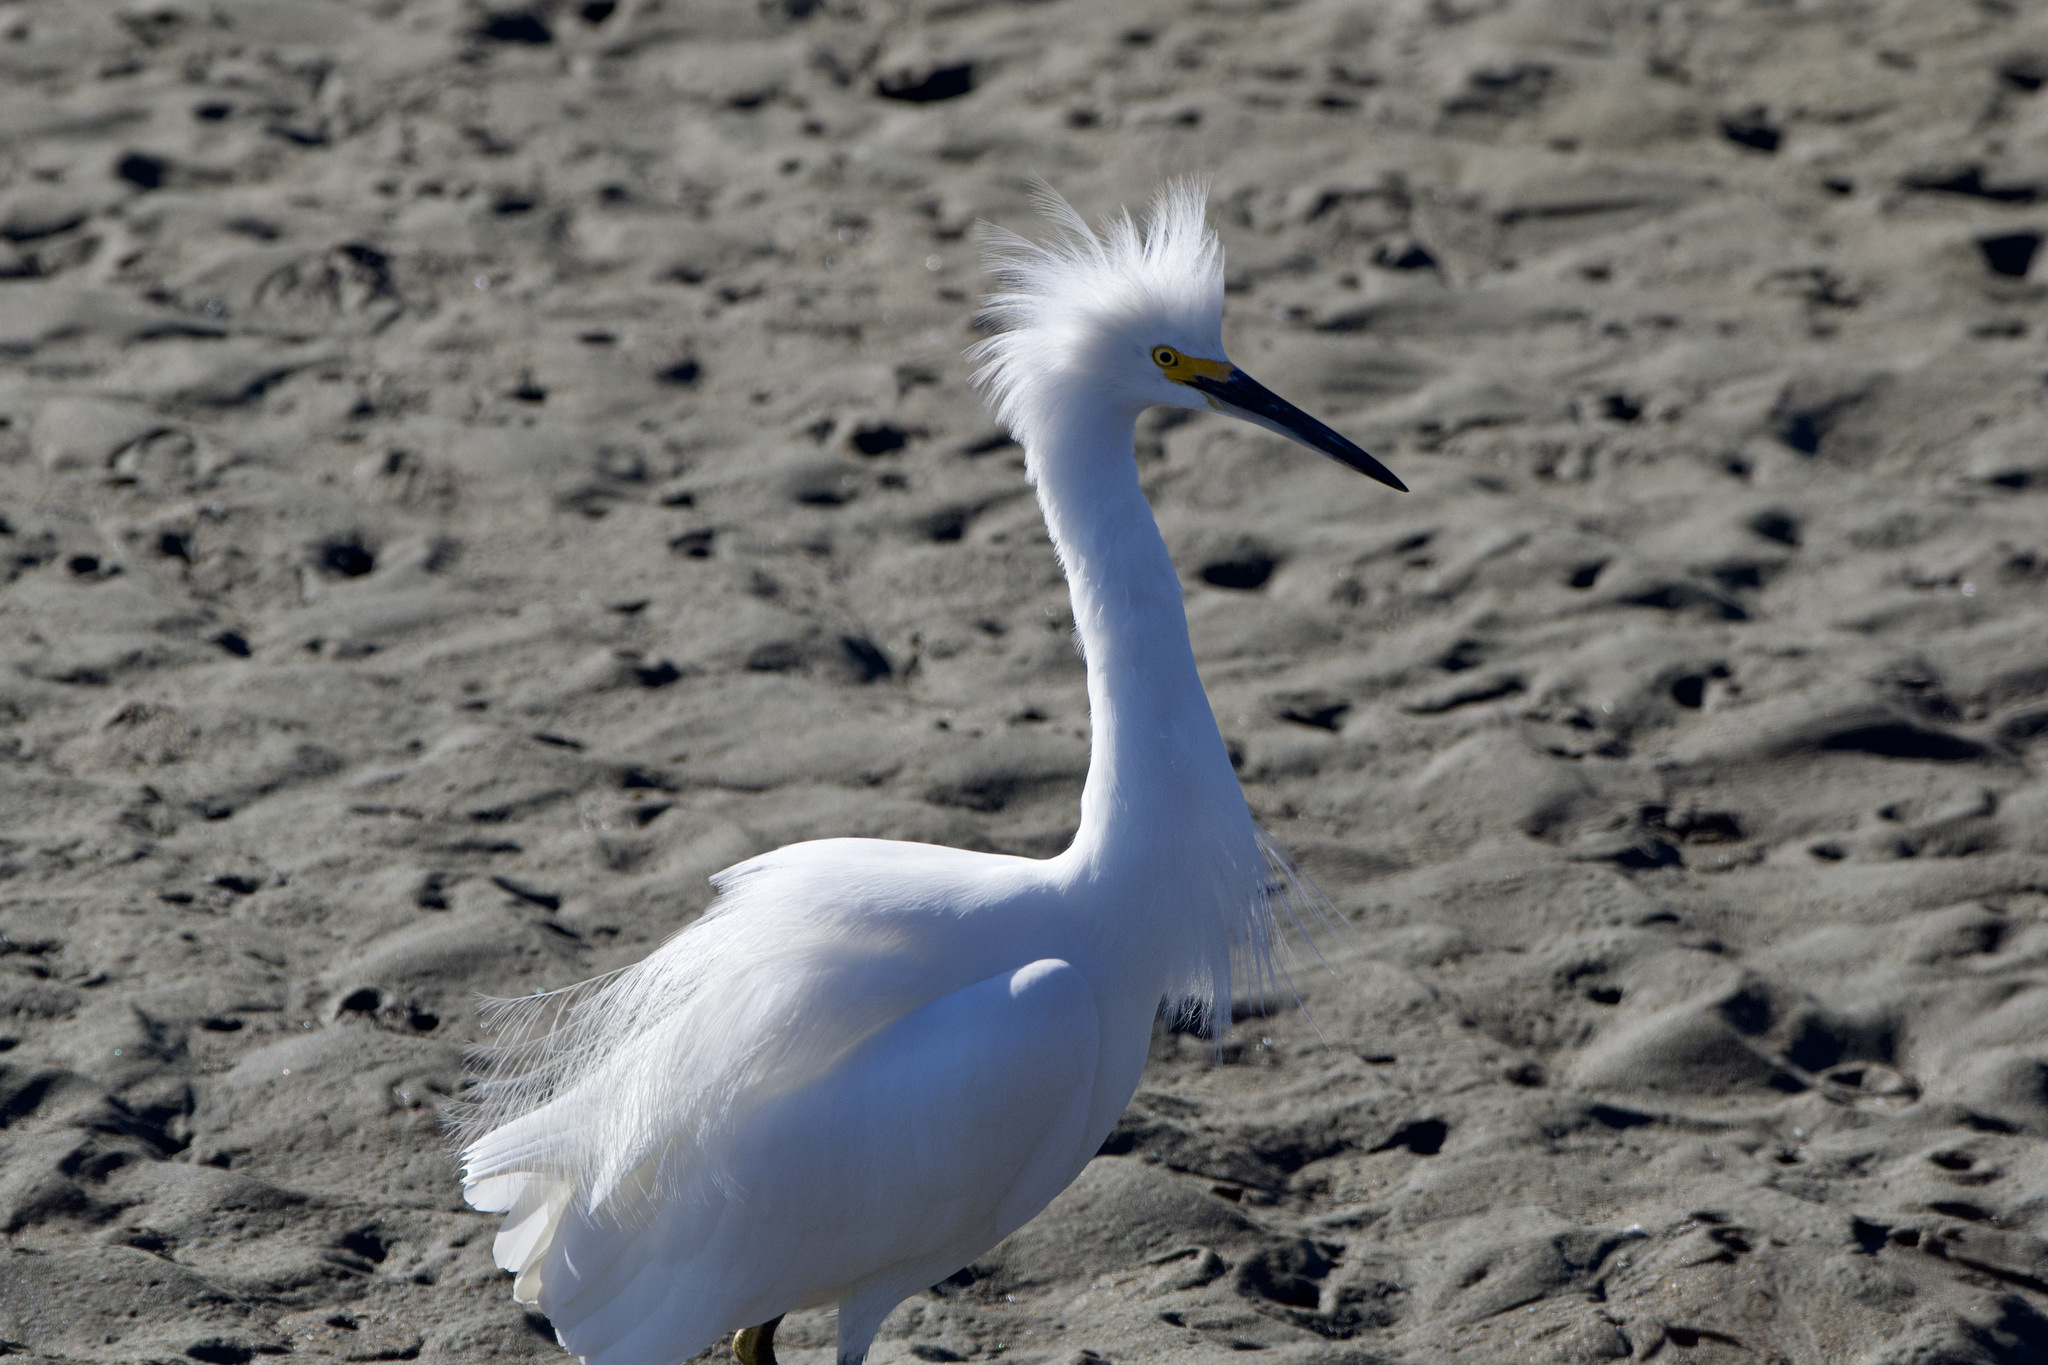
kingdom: Animalia
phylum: Chordata
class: Aves
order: Pelecaniformes
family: Ardeidae
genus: Egretta
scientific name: Egretta thula
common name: Snowy egret
